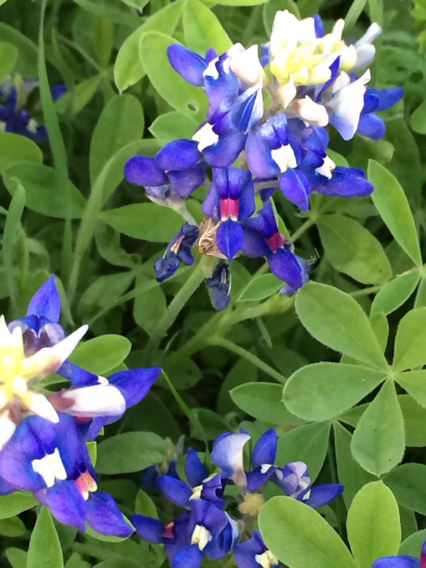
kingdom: Plantae
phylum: Tracheophyta
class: Magnoliopsida
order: Fabales
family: Fabaceae
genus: Lupinus
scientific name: Lupinus texensis
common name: Texas bluebonnet
